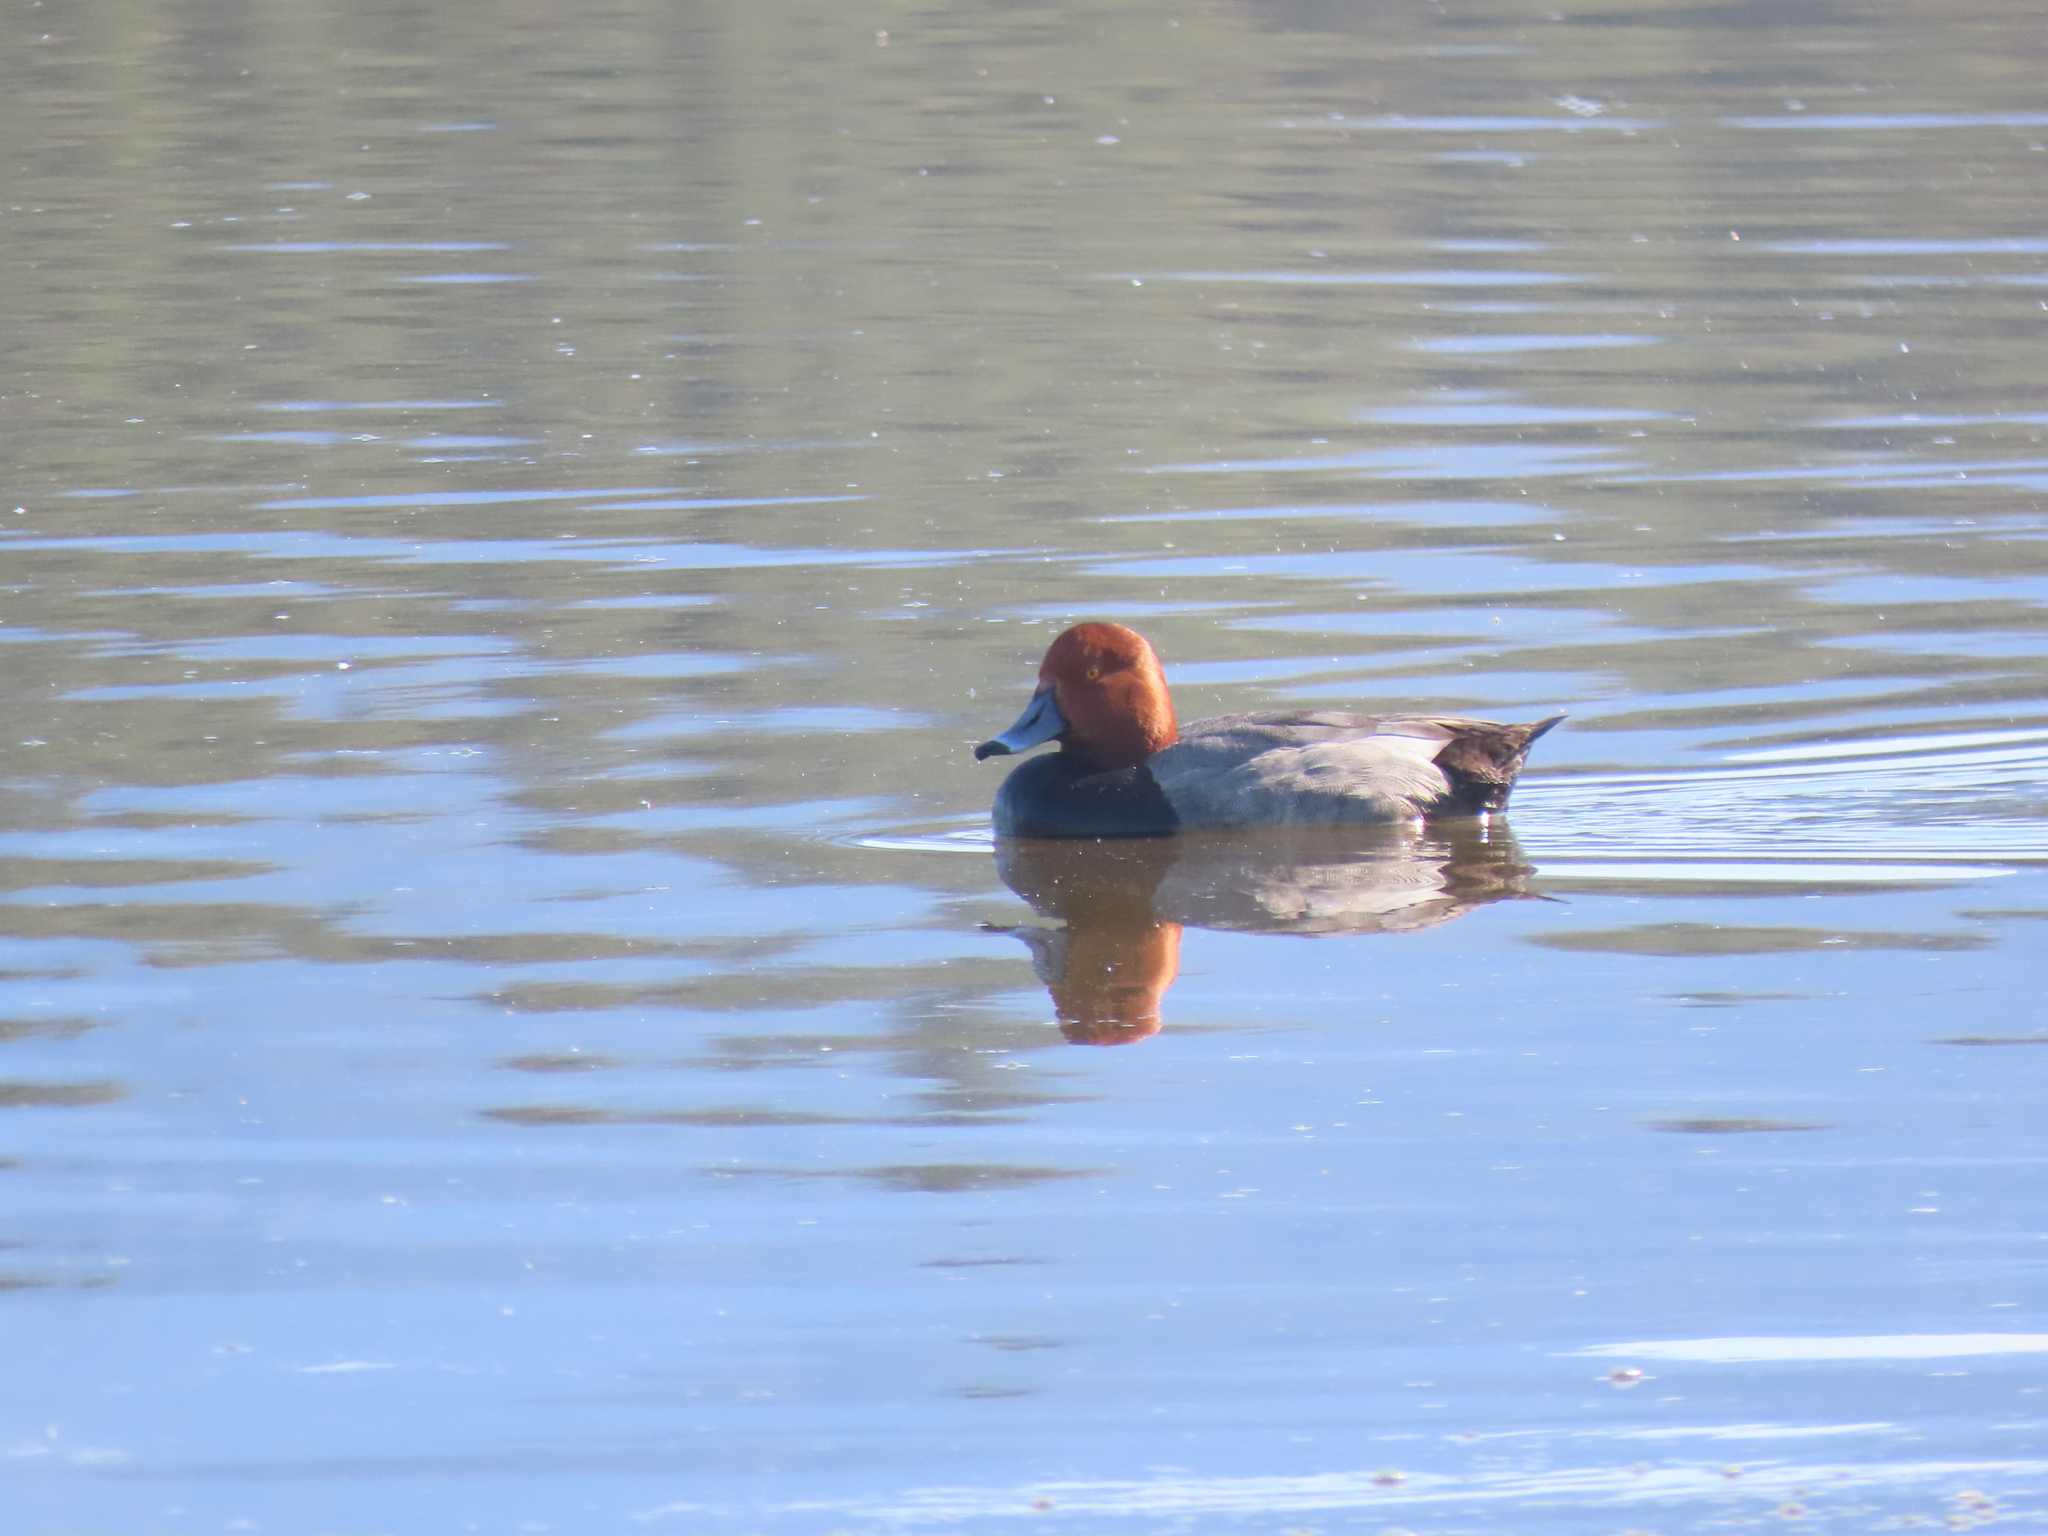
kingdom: Animalia
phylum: Chordata
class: Aves
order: Anseriformes
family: Anatidae
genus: Aythya
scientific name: Aythya americana
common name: Redhead
